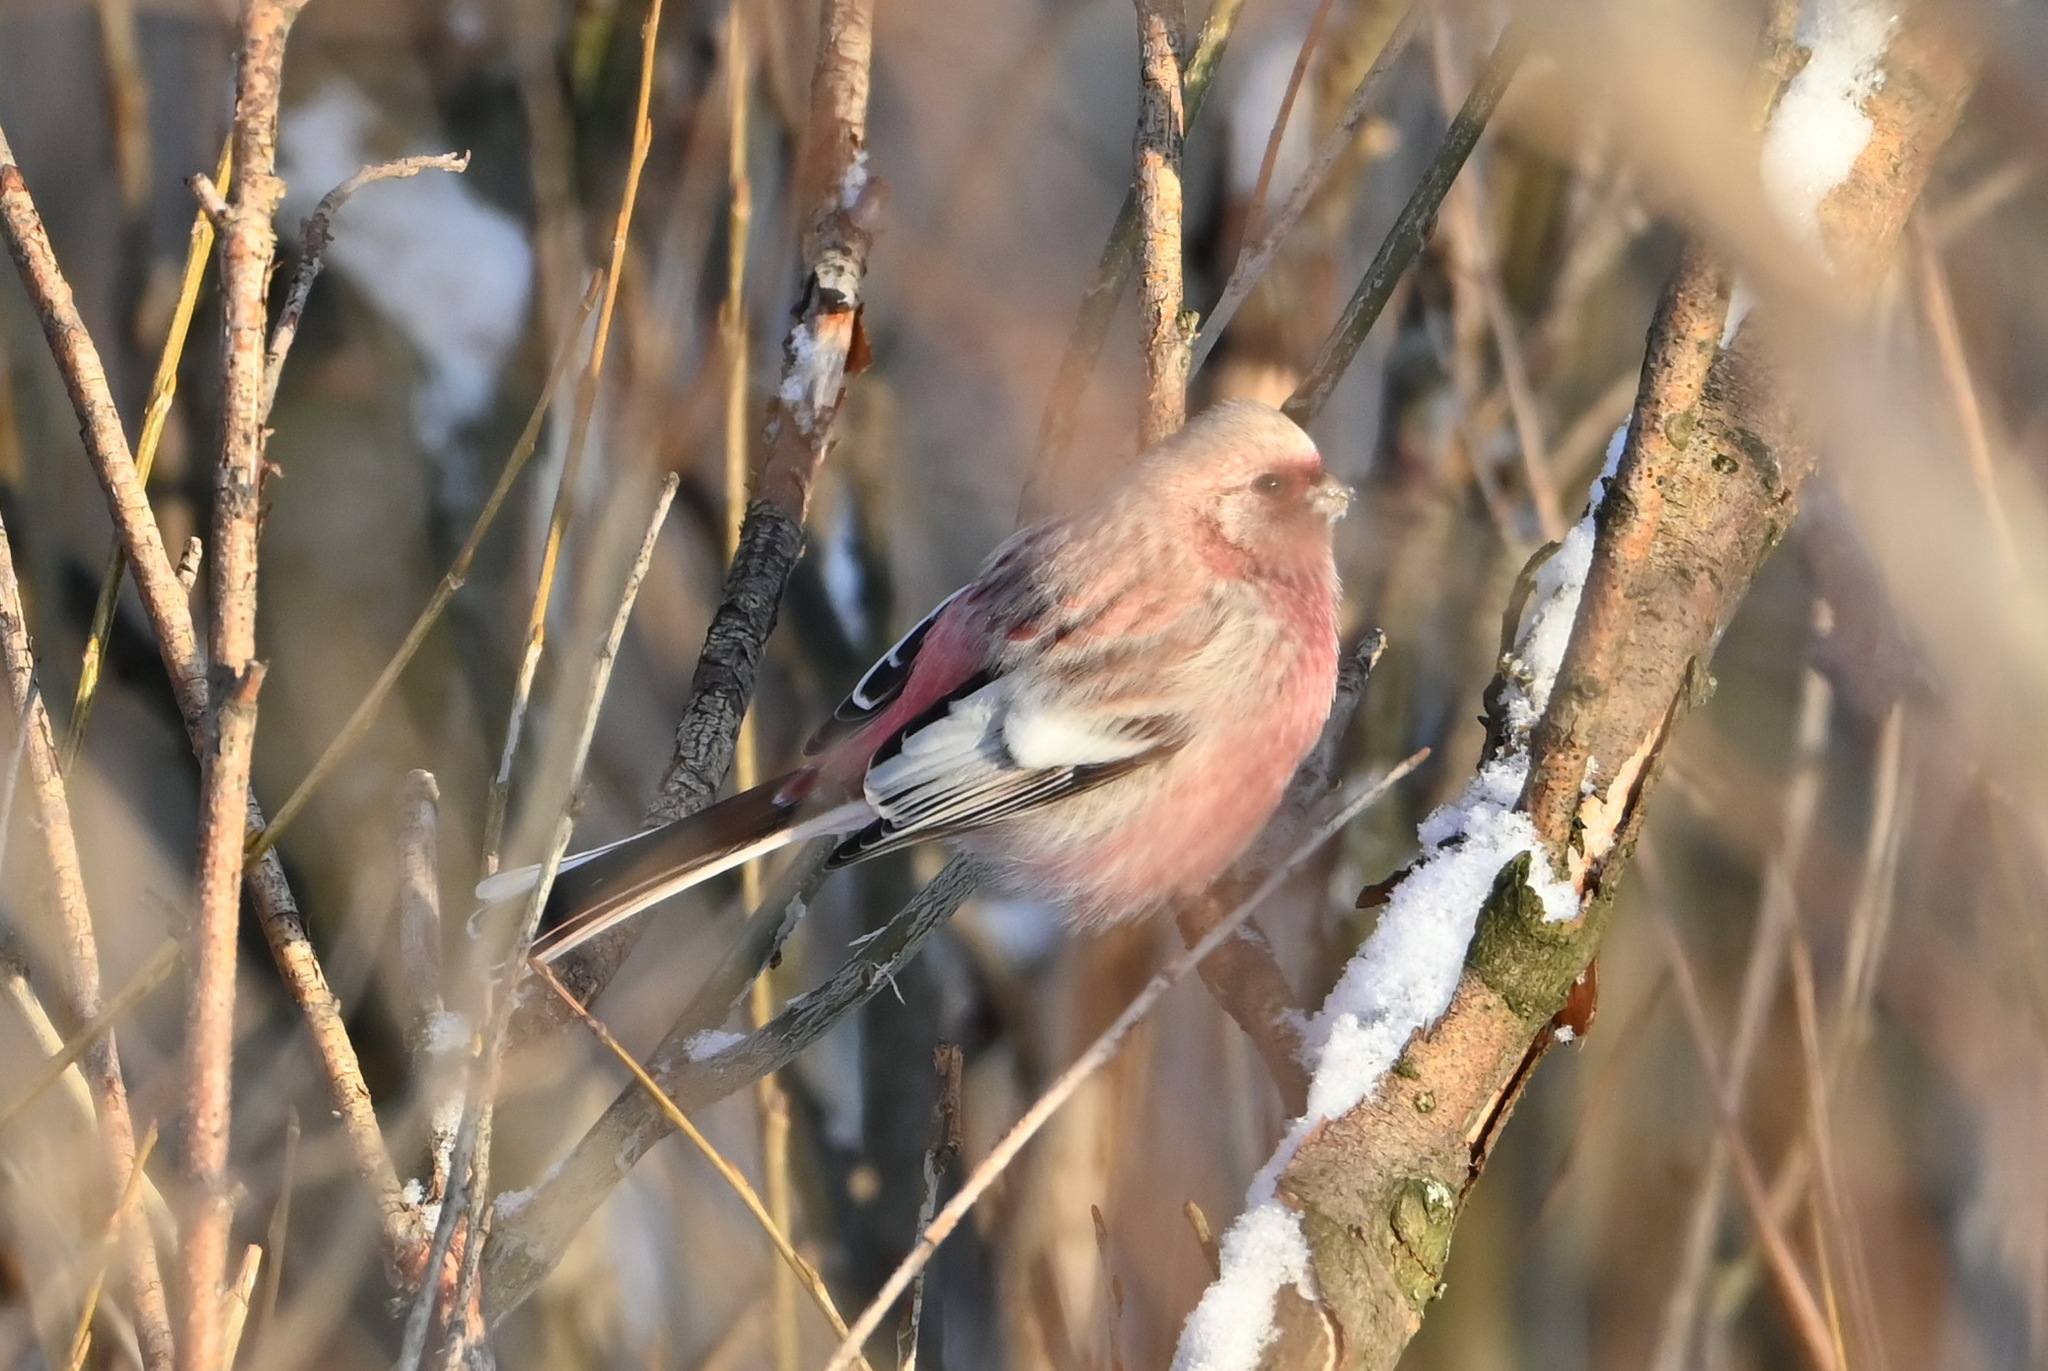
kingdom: Animalia
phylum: Chordata
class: Aves
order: Passeriformes
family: Fringillidae
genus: Carpodacus
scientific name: Carpodacus sibiricus
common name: Long-tailed rosefinch
